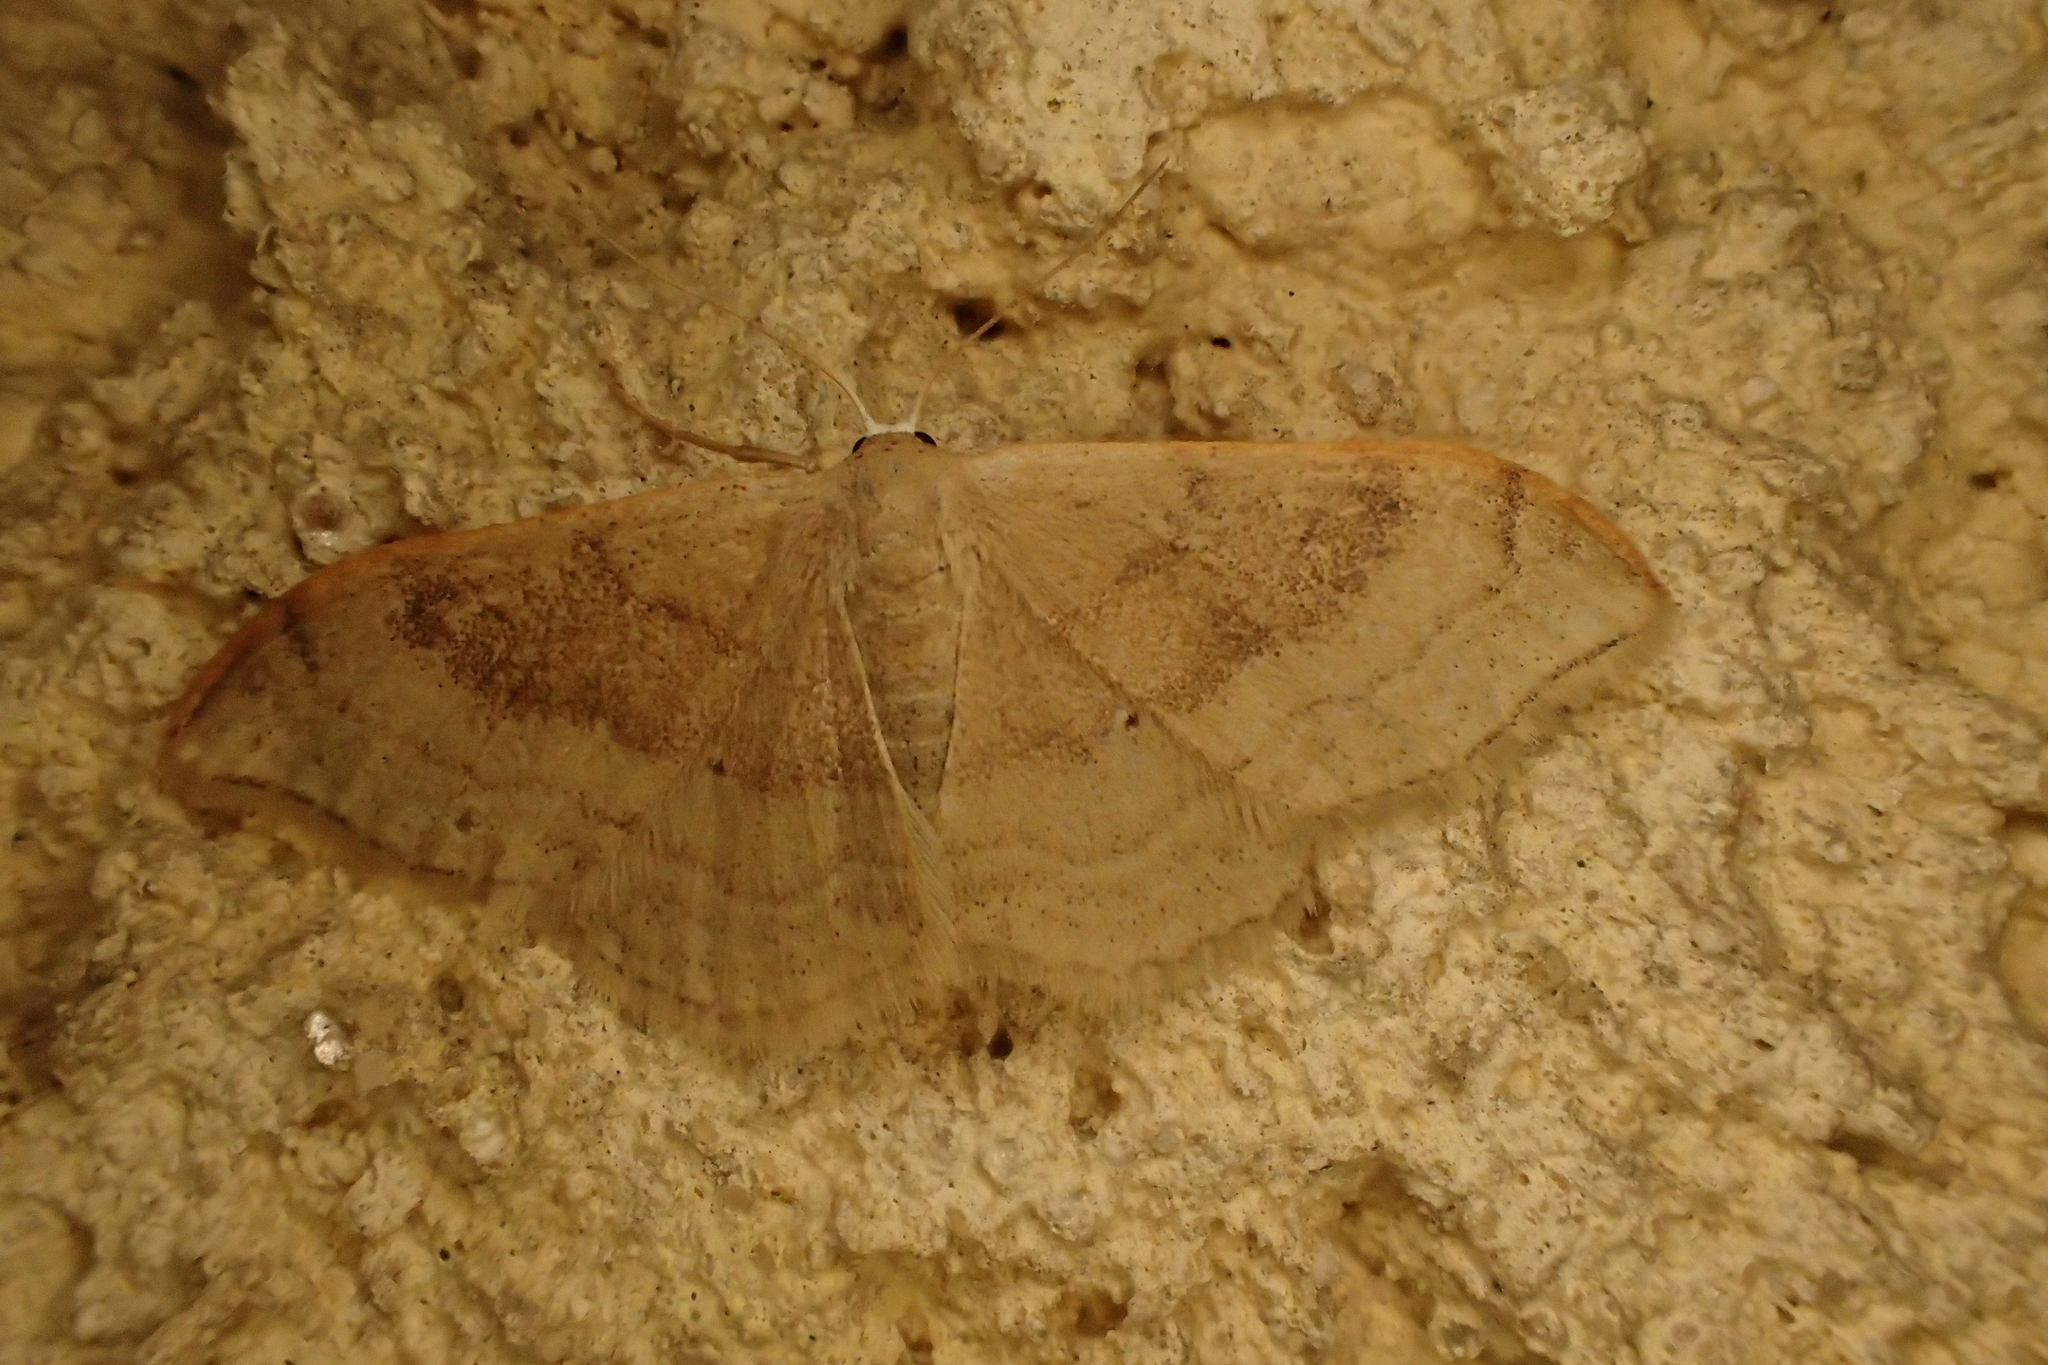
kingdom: Animalia
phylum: Arthropoda
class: Insecta
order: Lepidoptera
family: Geometridae
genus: Idaea
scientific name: Idaea degeneraria
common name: Portland ribbon wave
